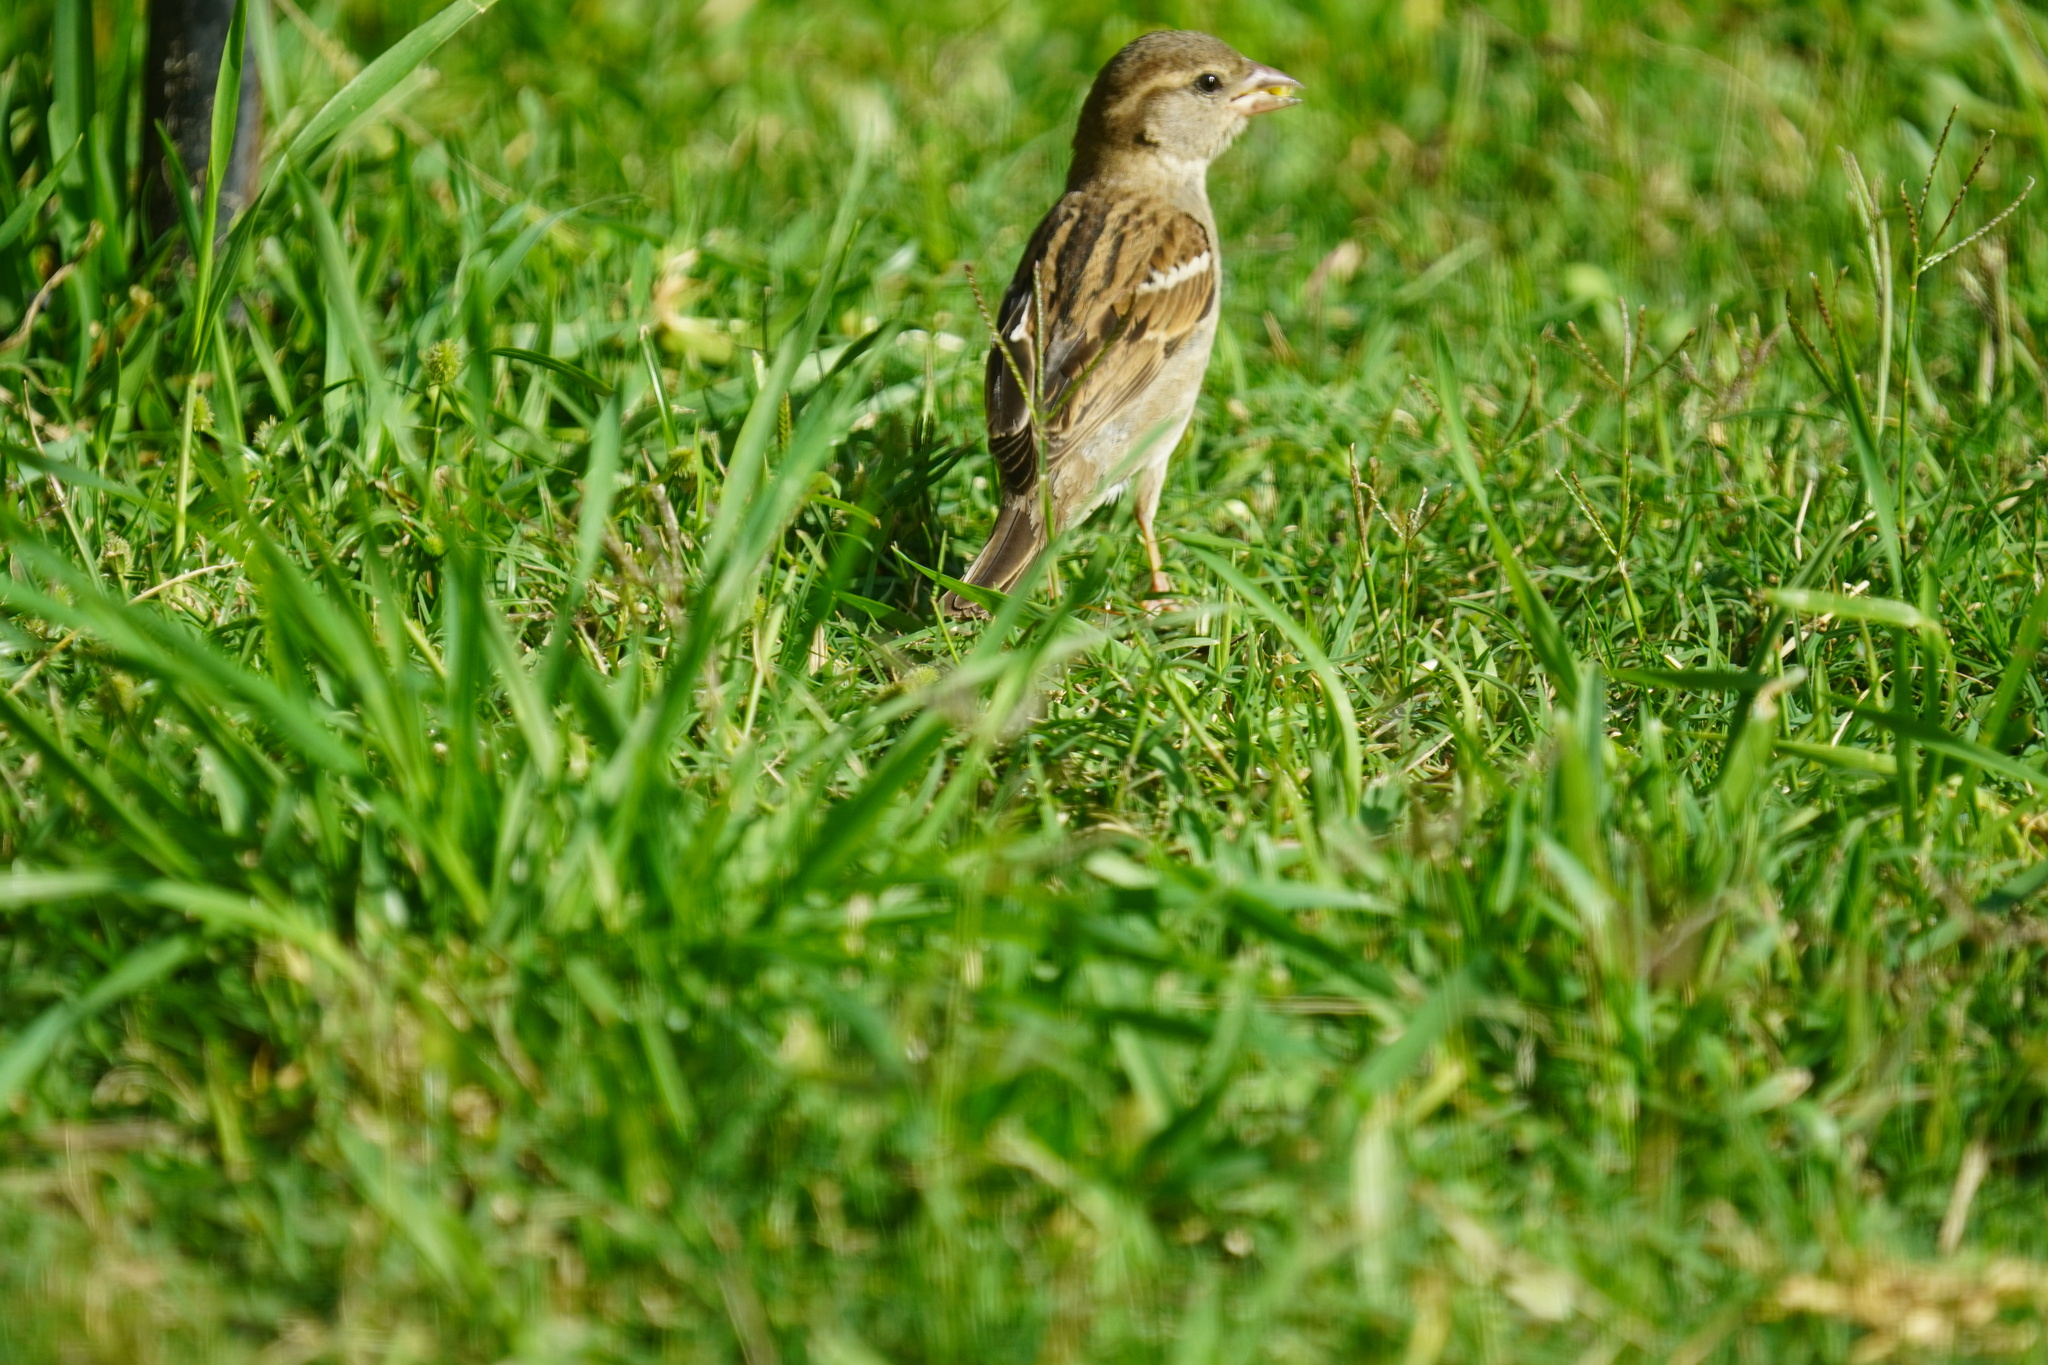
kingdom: Animalia
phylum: Chordata
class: Aves
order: Passeriformes
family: Passeridae
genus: Passer
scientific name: Passer domesticus
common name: House sparrow
